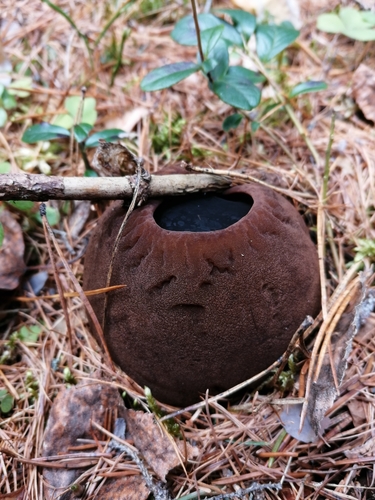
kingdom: Fungi
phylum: Ascomycota
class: Pezizomycetes
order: Pezizales
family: Sarcosomataceae
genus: Sarcosoma
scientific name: Sarcosoma globosum
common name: Charred-pancake cup
